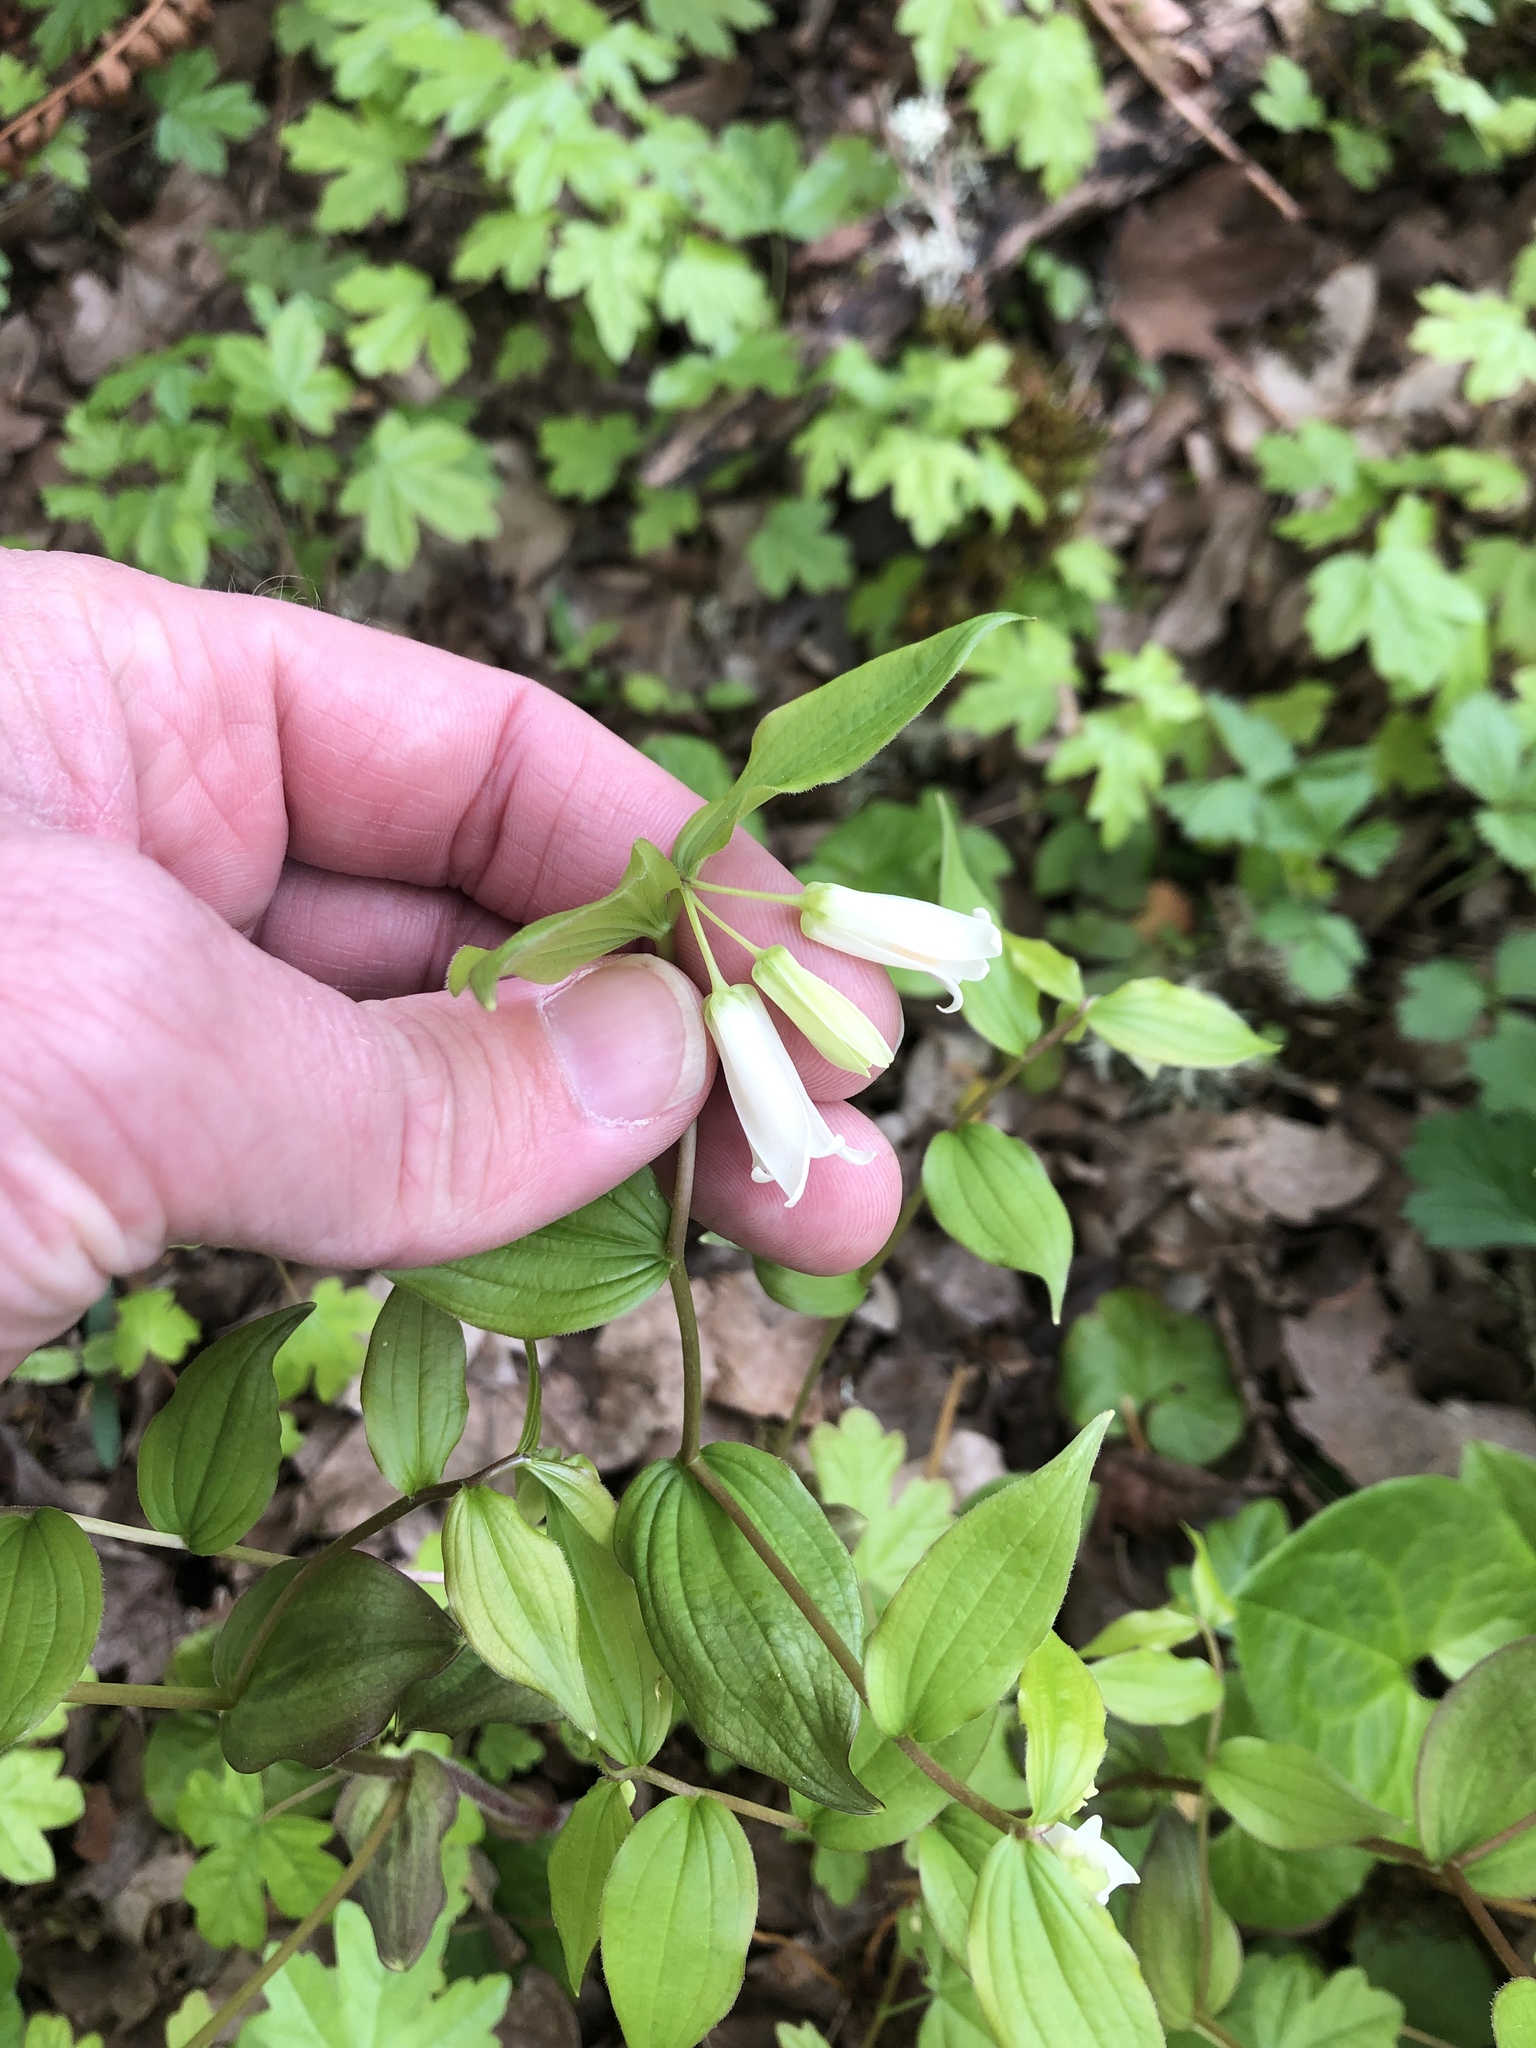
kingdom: Plantae
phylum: Tracheophyta
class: Liliopsida
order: Liliales
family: Liliaceae
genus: Prosartes
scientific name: Prosartes smithii
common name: Fairy-lantern
